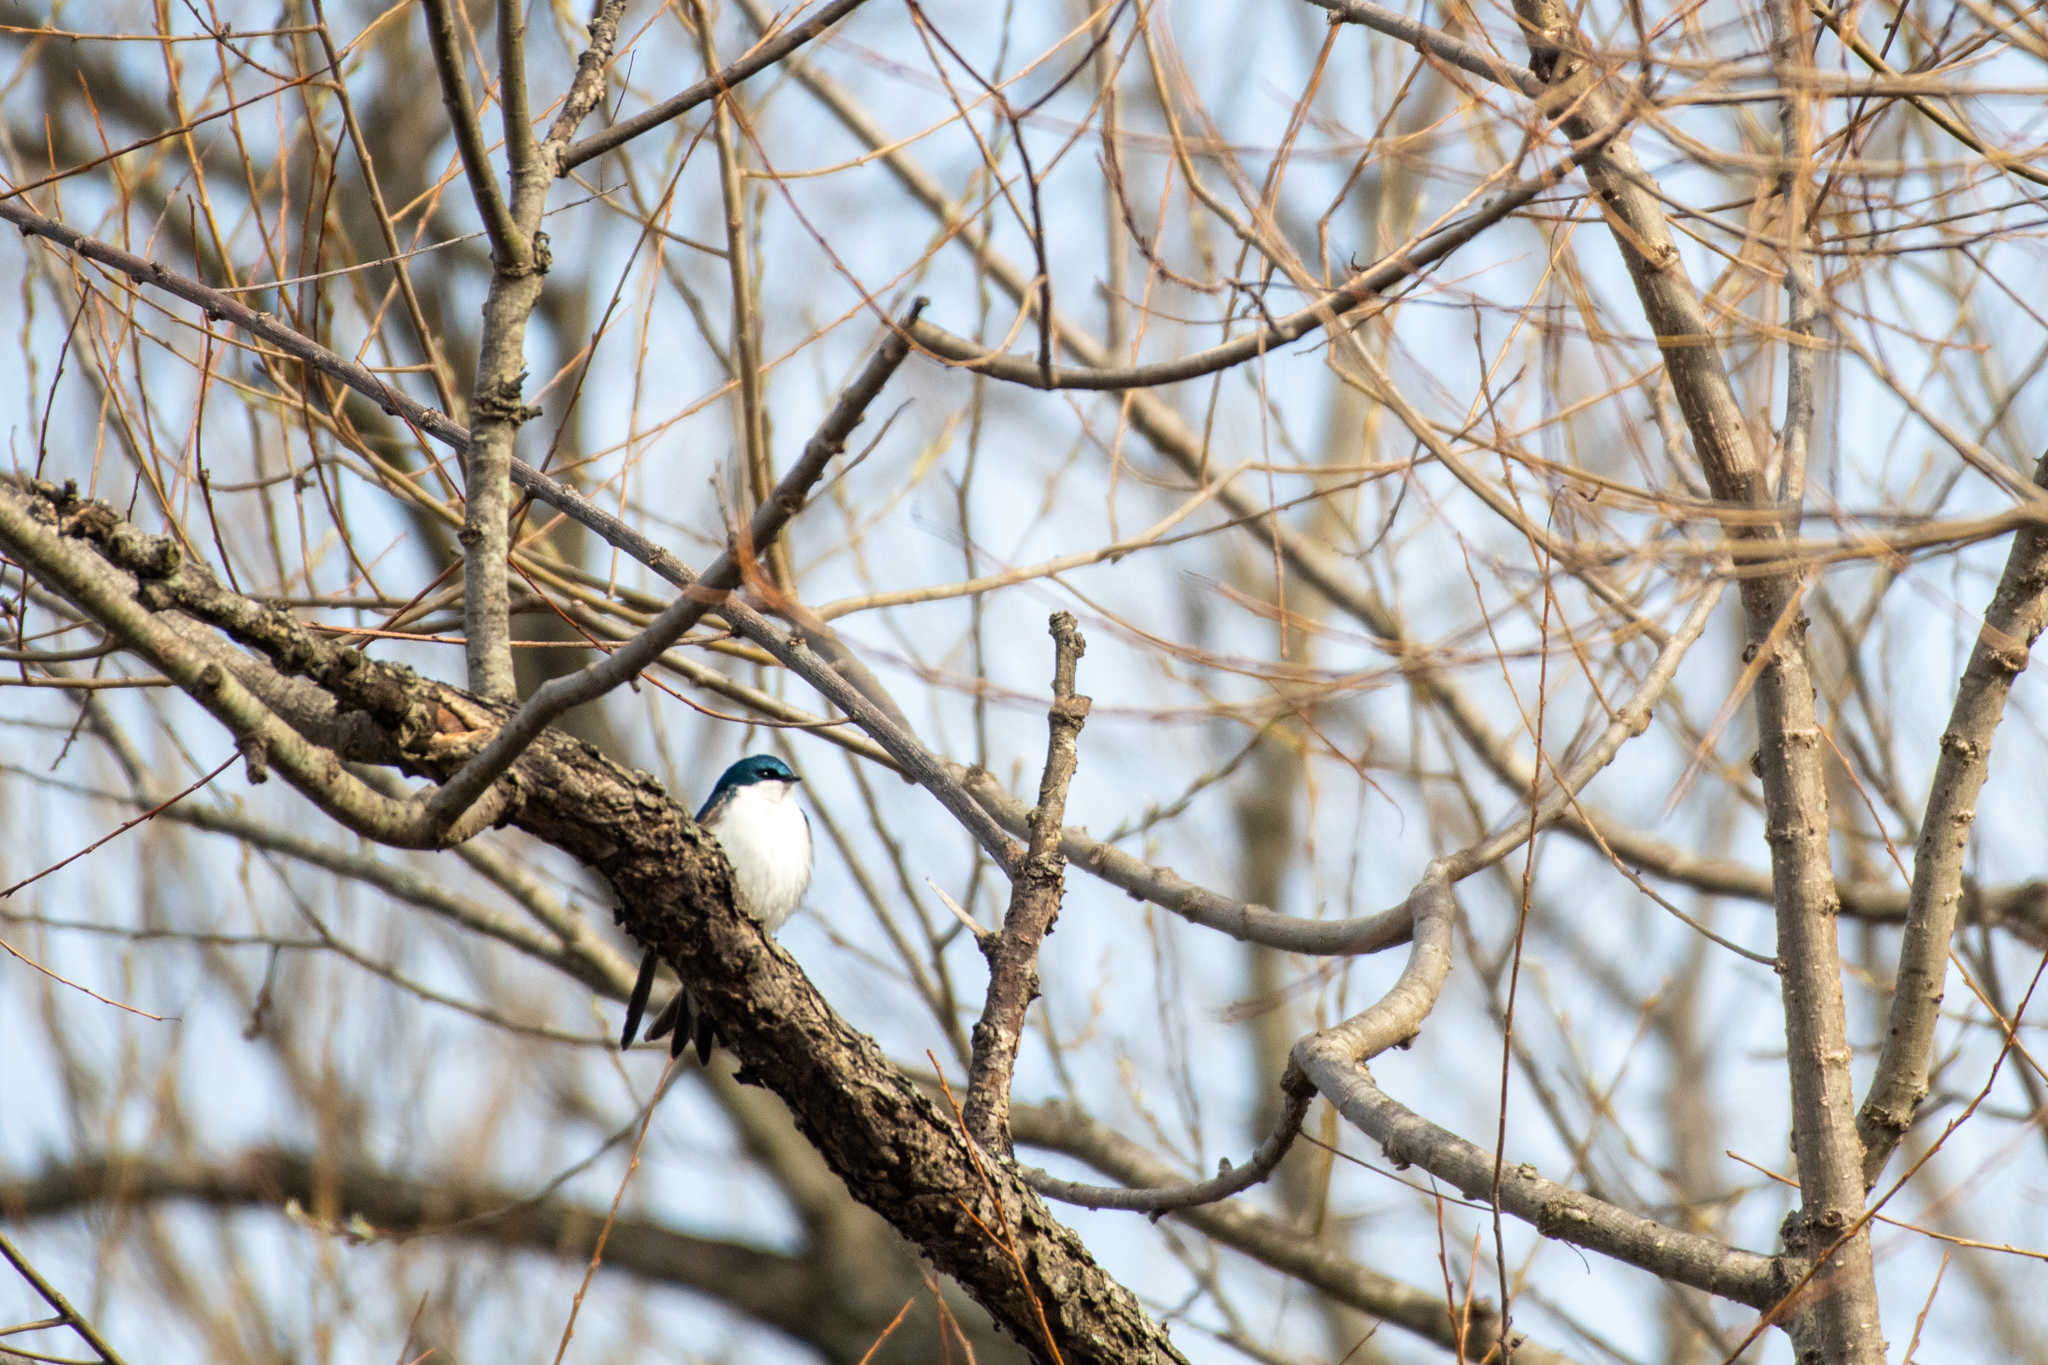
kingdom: Animalia
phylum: Chordata
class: Aves
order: Passeriformes
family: Hirundinidae
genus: Tachycineta
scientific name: Tachycineta bicolor
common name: Tree swallow
